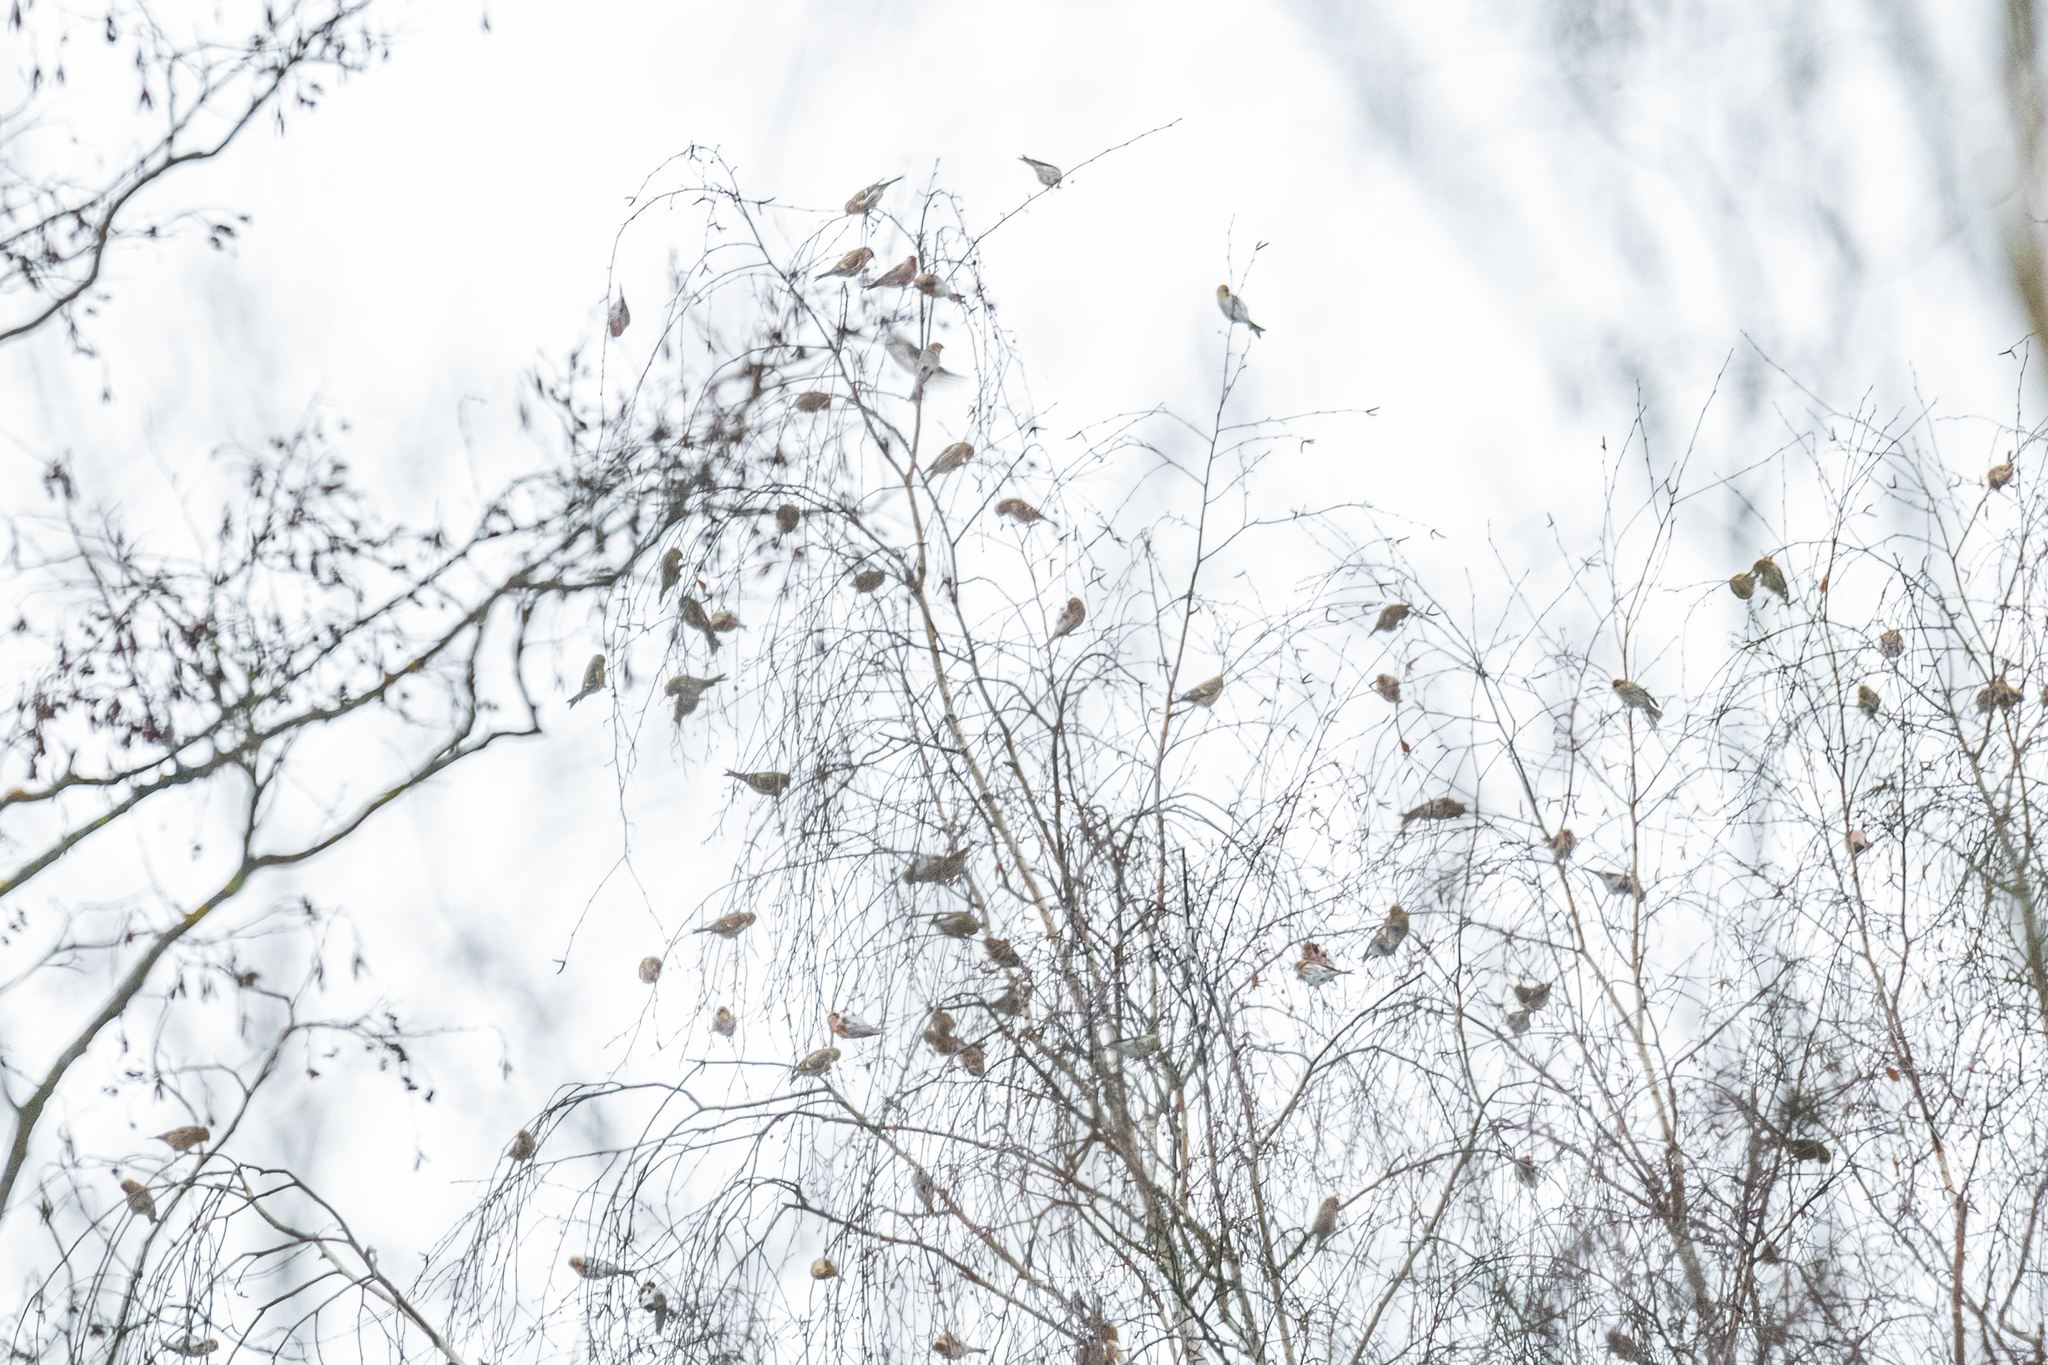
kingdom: Animalia
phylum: Chordata
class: Aves
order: Passeriformes
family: Fringillidae
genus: Acanthis
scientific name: Acanthis flammea
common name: Common redpoll
